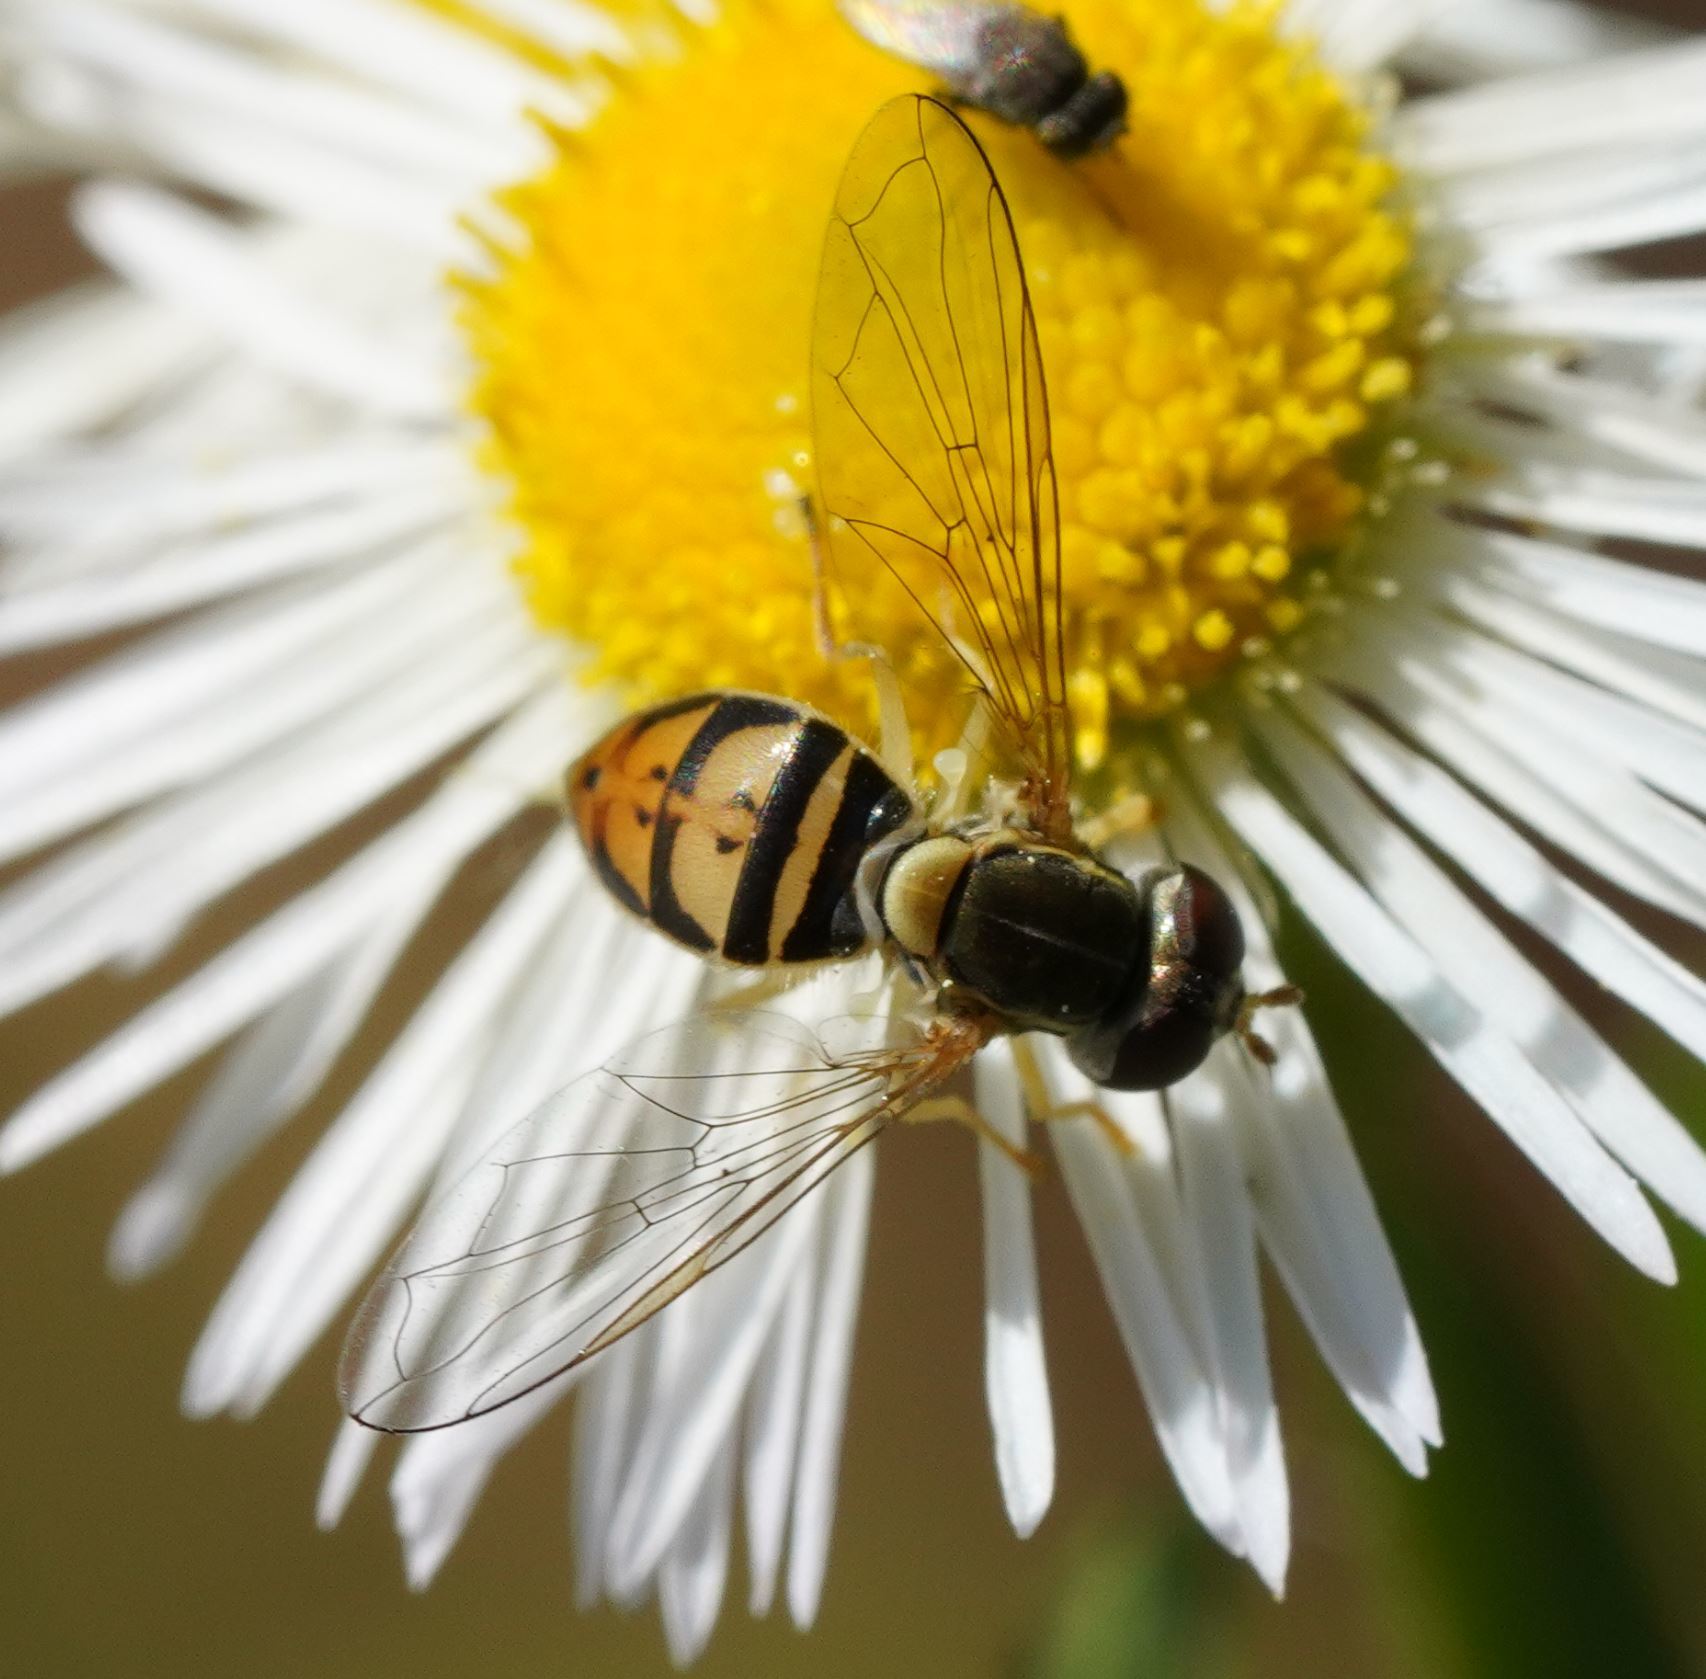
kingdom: Animalia
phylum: Arthropoda
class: Insecta
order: Diptera
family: Syrphidae
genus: Toxomerus
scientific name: Toxomerus marginatus
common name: Syrphid fly
